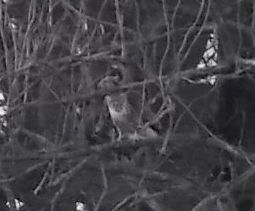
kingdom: Animalia
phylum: Chordata
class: Aves
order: Accipitriformes
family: Accipitridae
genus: Buteo
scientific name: Buteo buteo
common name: Common buzzard
